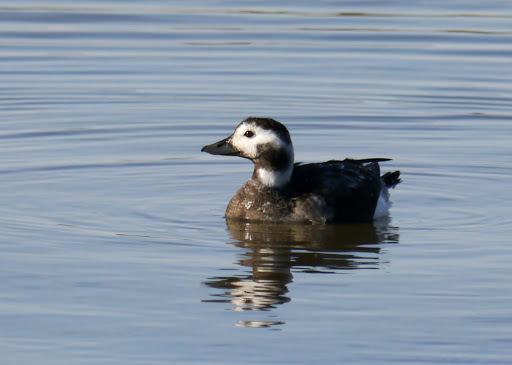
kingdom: Animalia
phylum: Chordata
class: Aves
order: Anseriformes
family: Anatidae
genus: Clangula
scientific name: Clangula hyemalis
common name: Long-tailed duck
